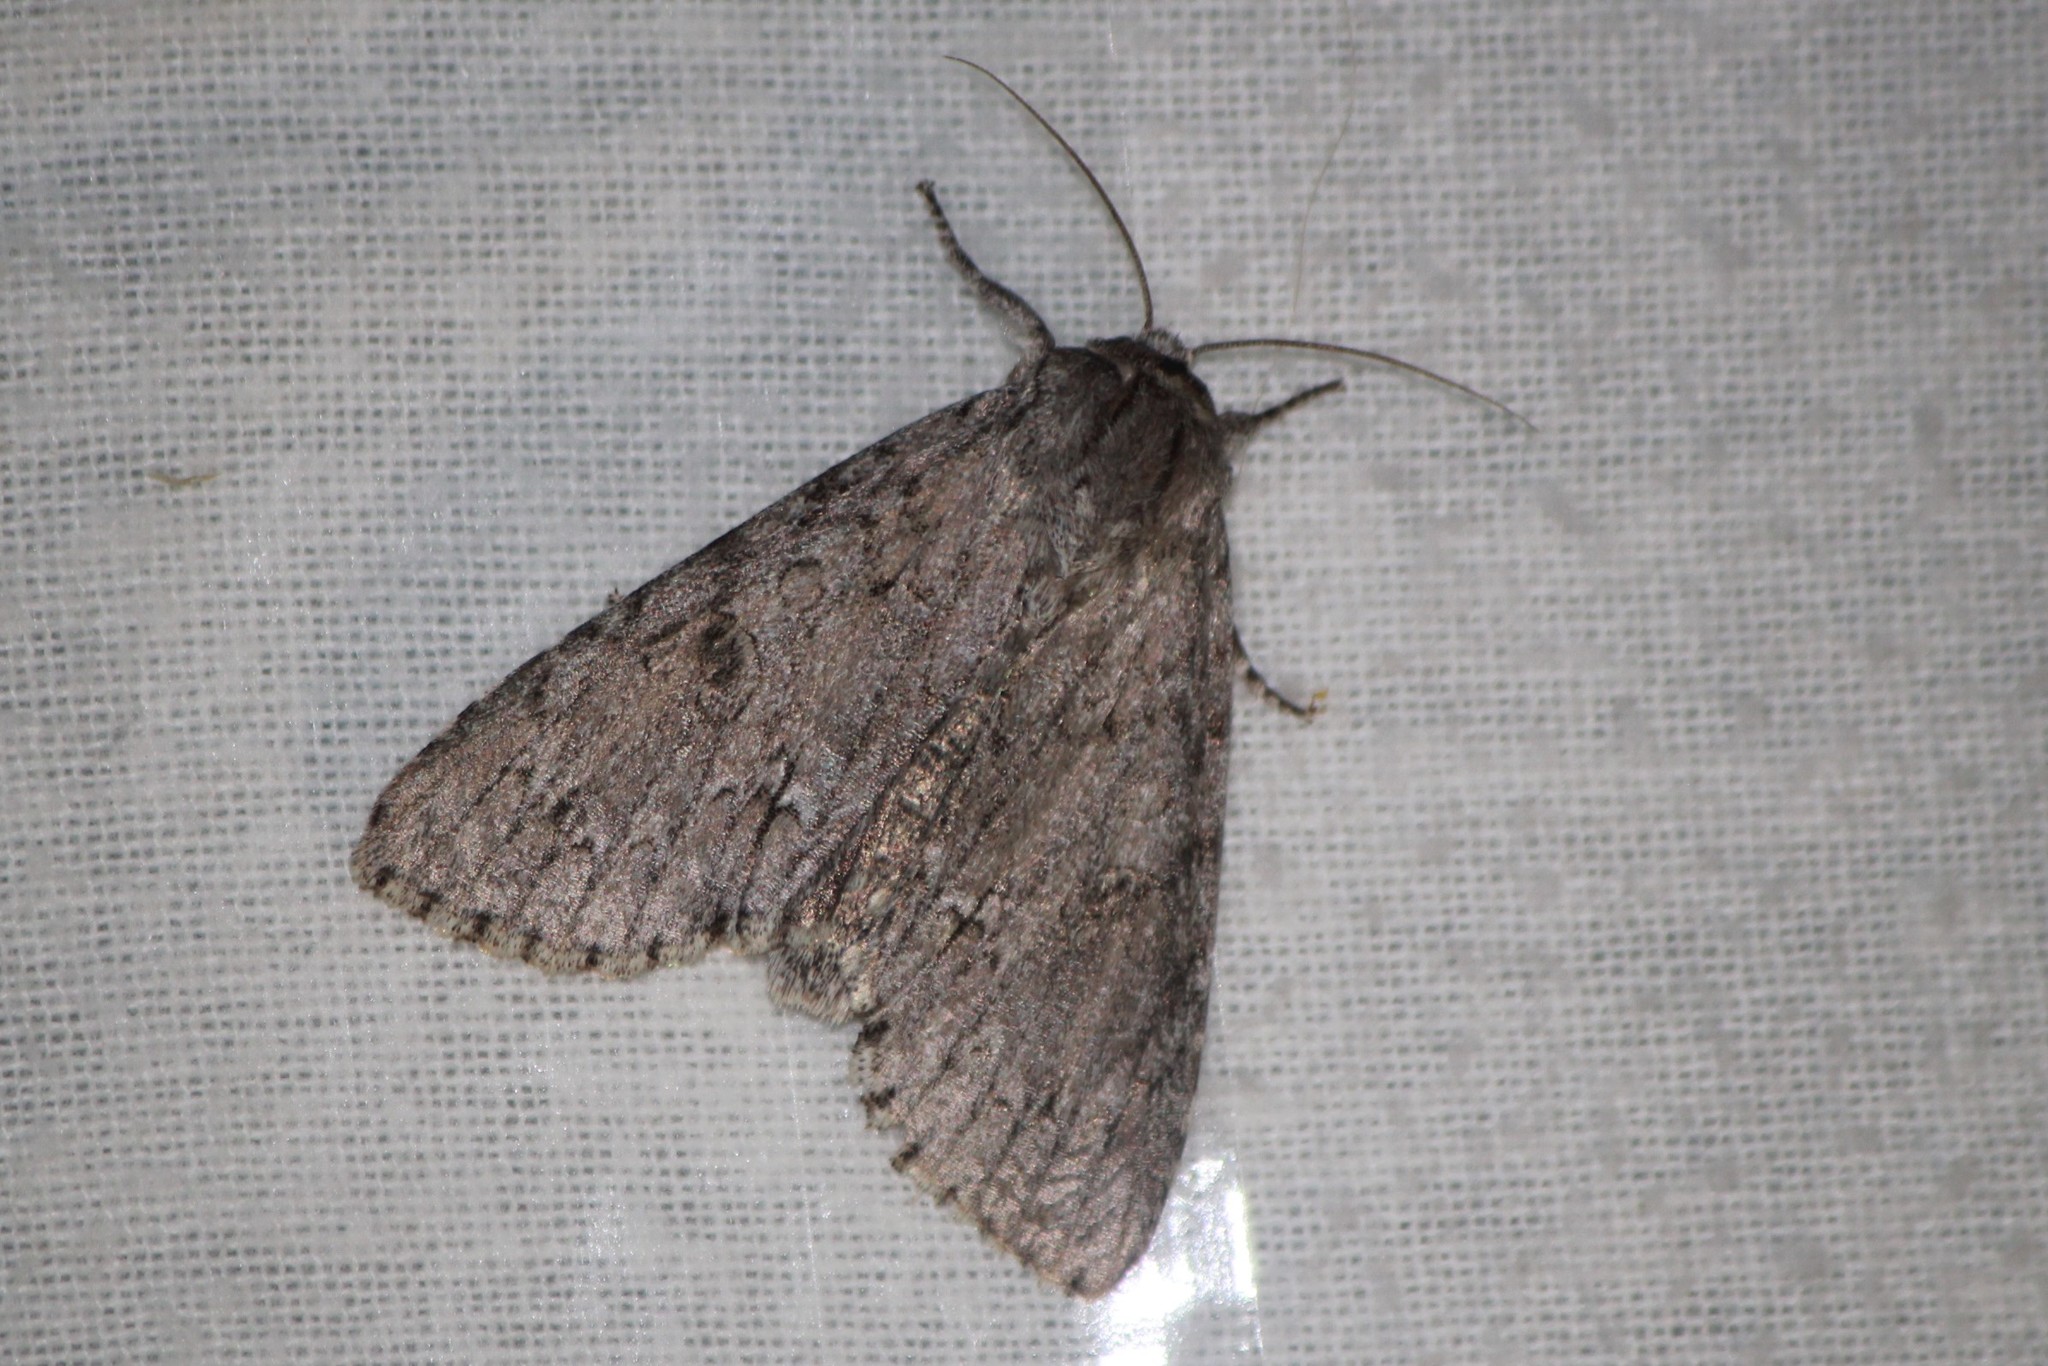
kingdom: Animalia
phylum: Arthropoda
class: Insecta
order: Lepidoptera
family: Noctuidae
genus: Acronicta
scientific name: Acronicta americana
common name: American dagger
